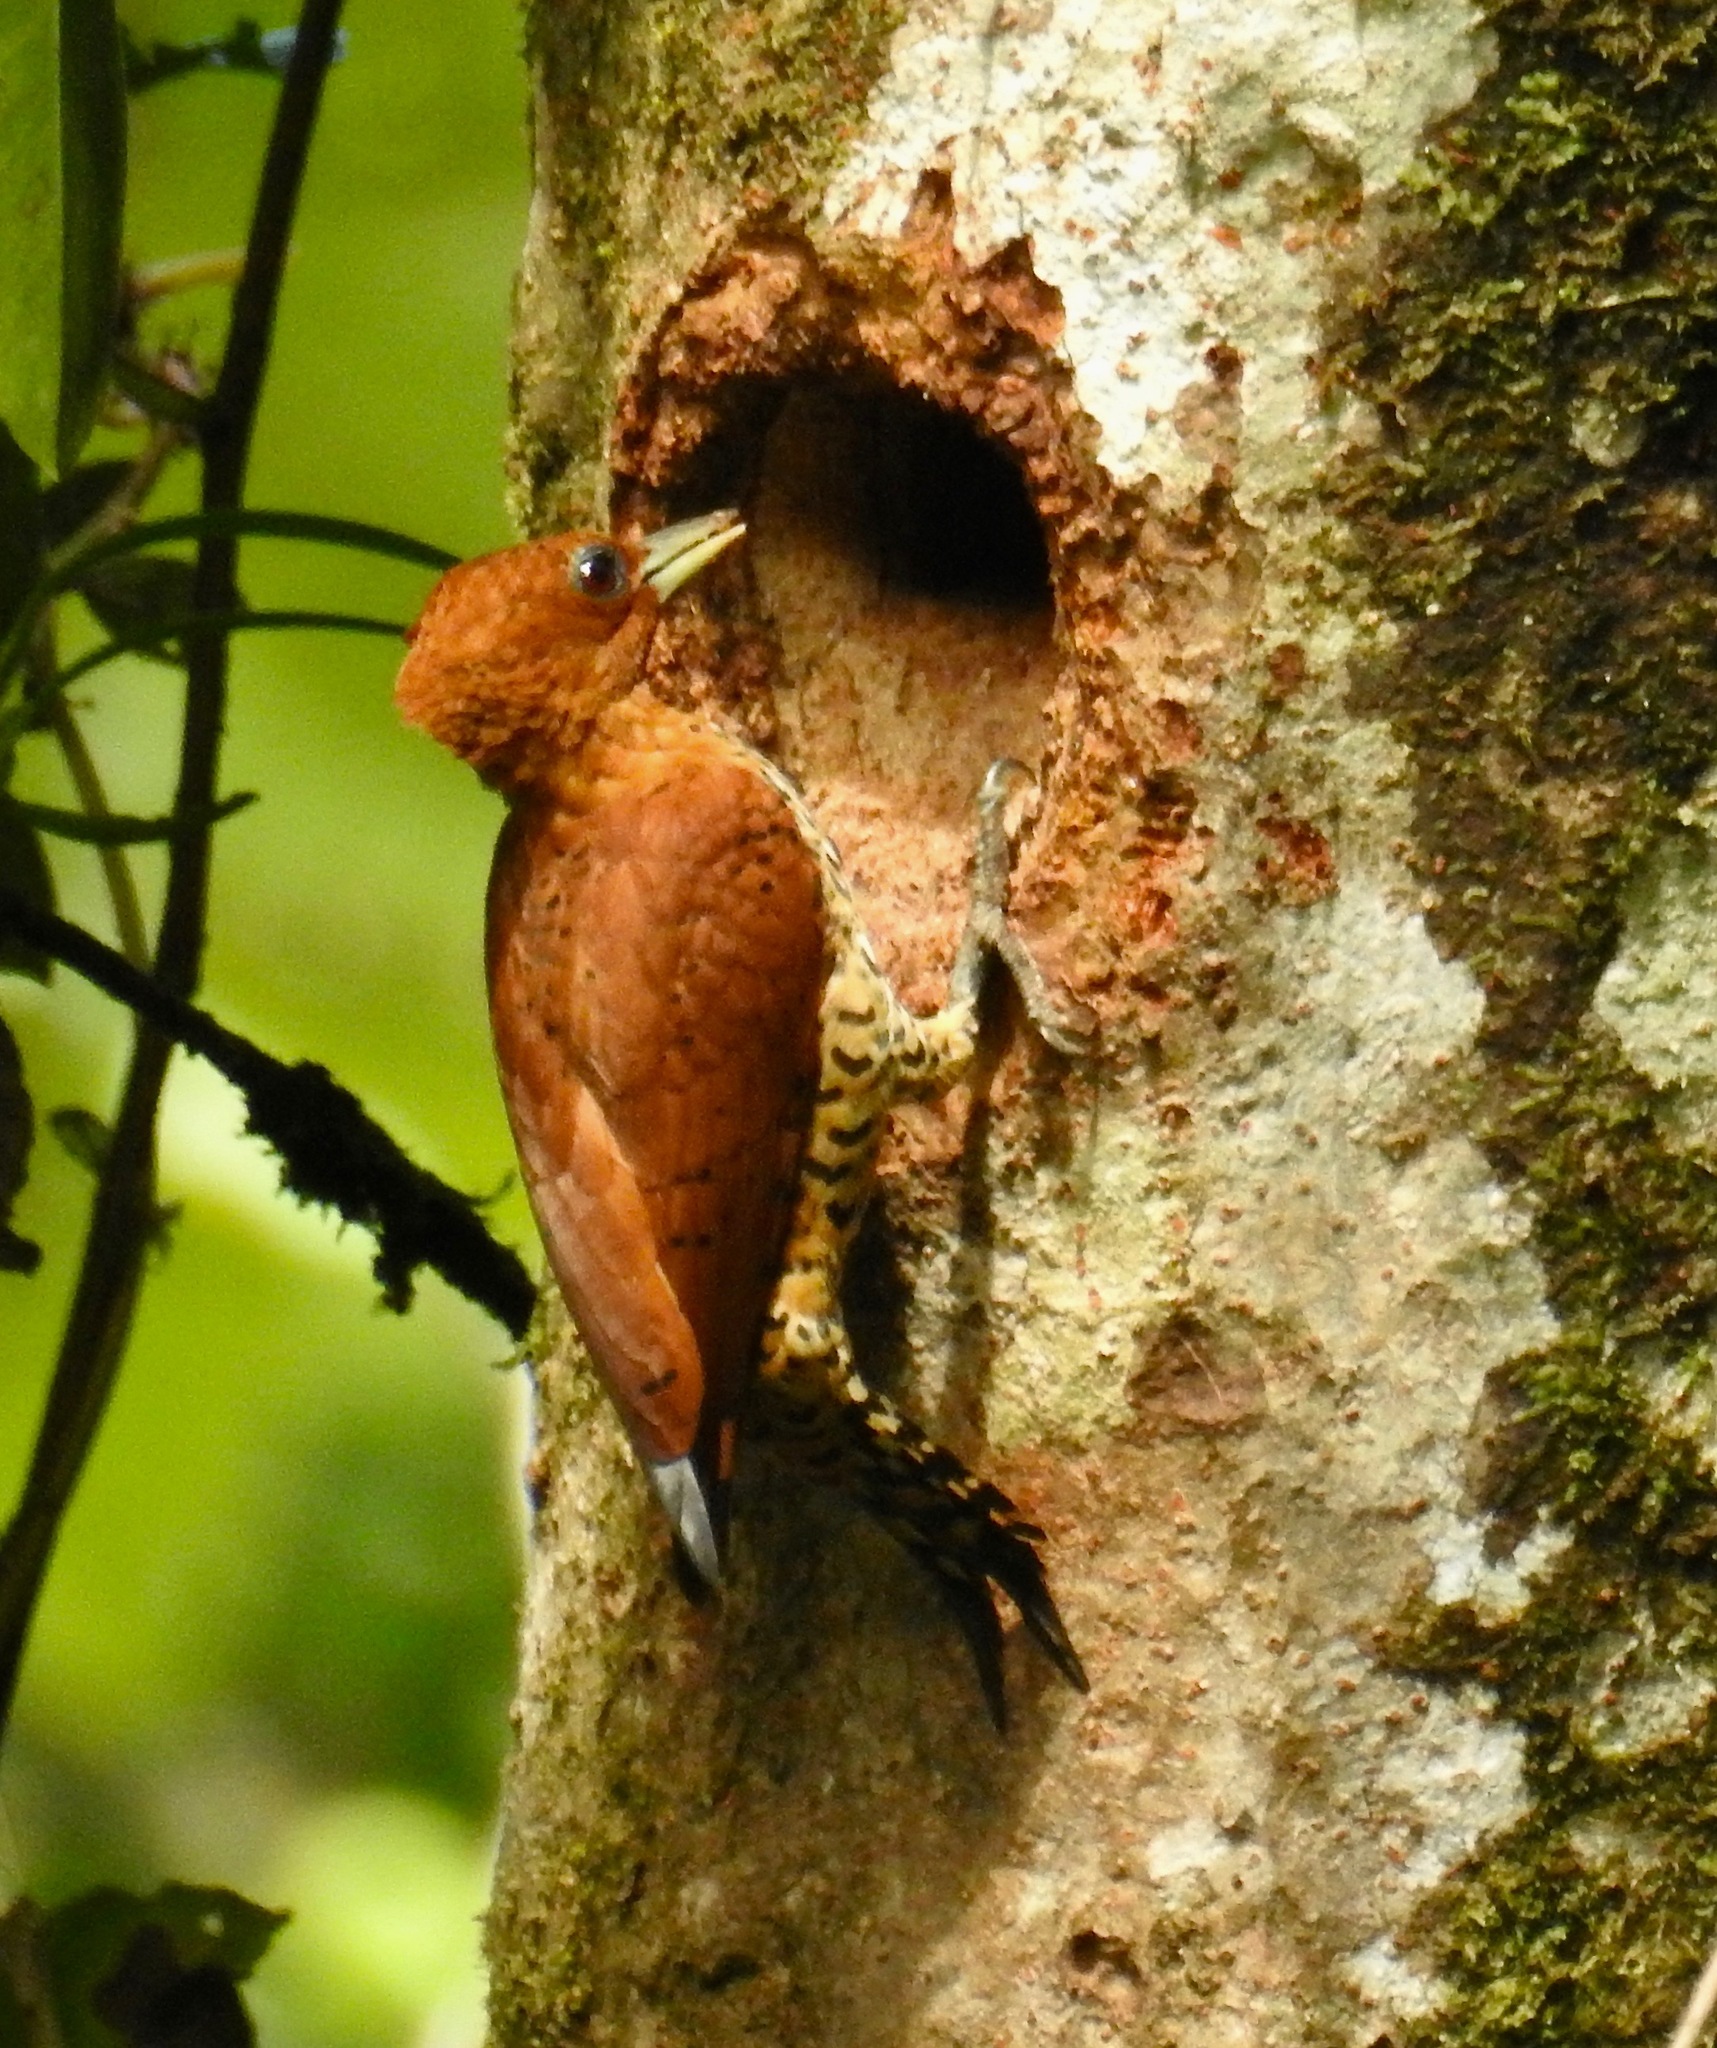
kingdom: Animalia
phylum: Chordata
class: Aves
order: Piciformes
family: Picidae
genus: Celeus
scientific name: Celeus loricatus
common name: Cinnamon woodpecker
